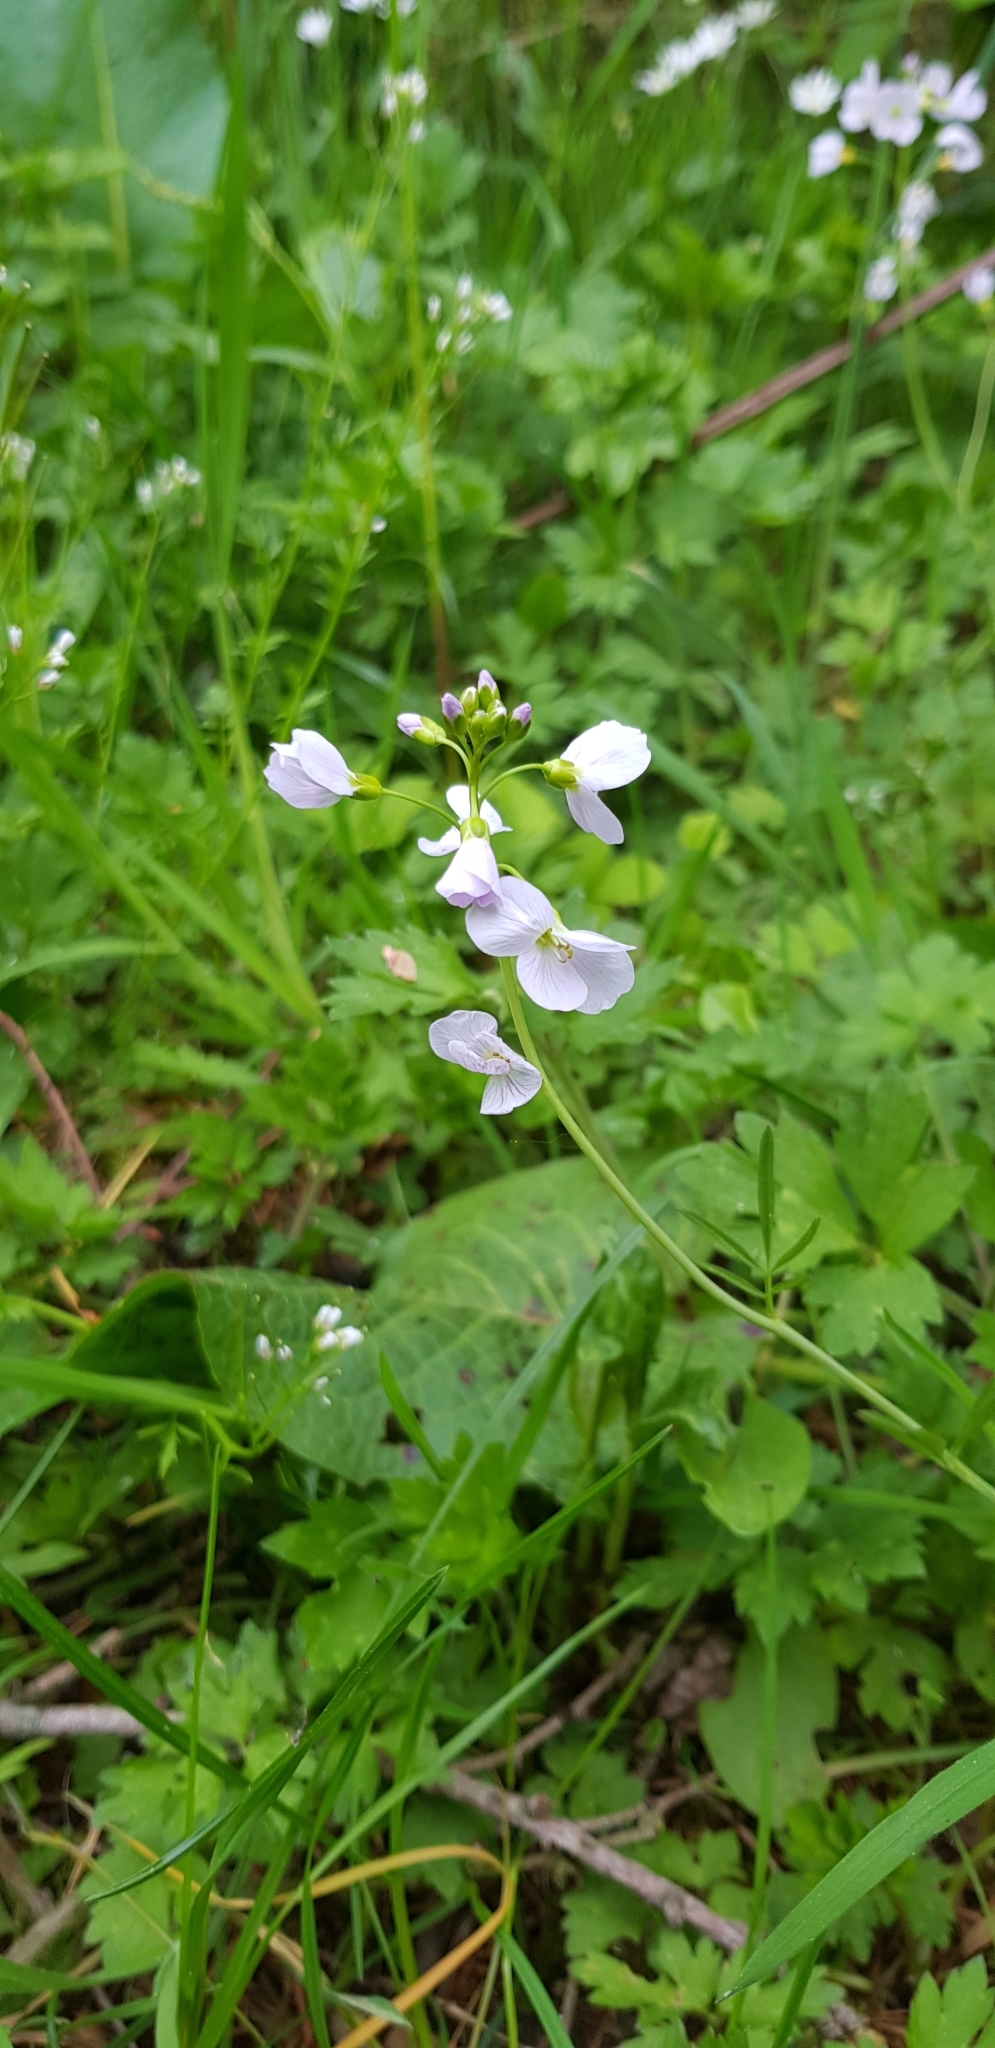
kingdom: Plantae
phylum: Tracheophyta
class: Magnoliopsida
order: Brassicales
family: Brassicaceae
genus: Cardamine
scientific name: Cardamine pratensis
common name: Cuckoo flower
